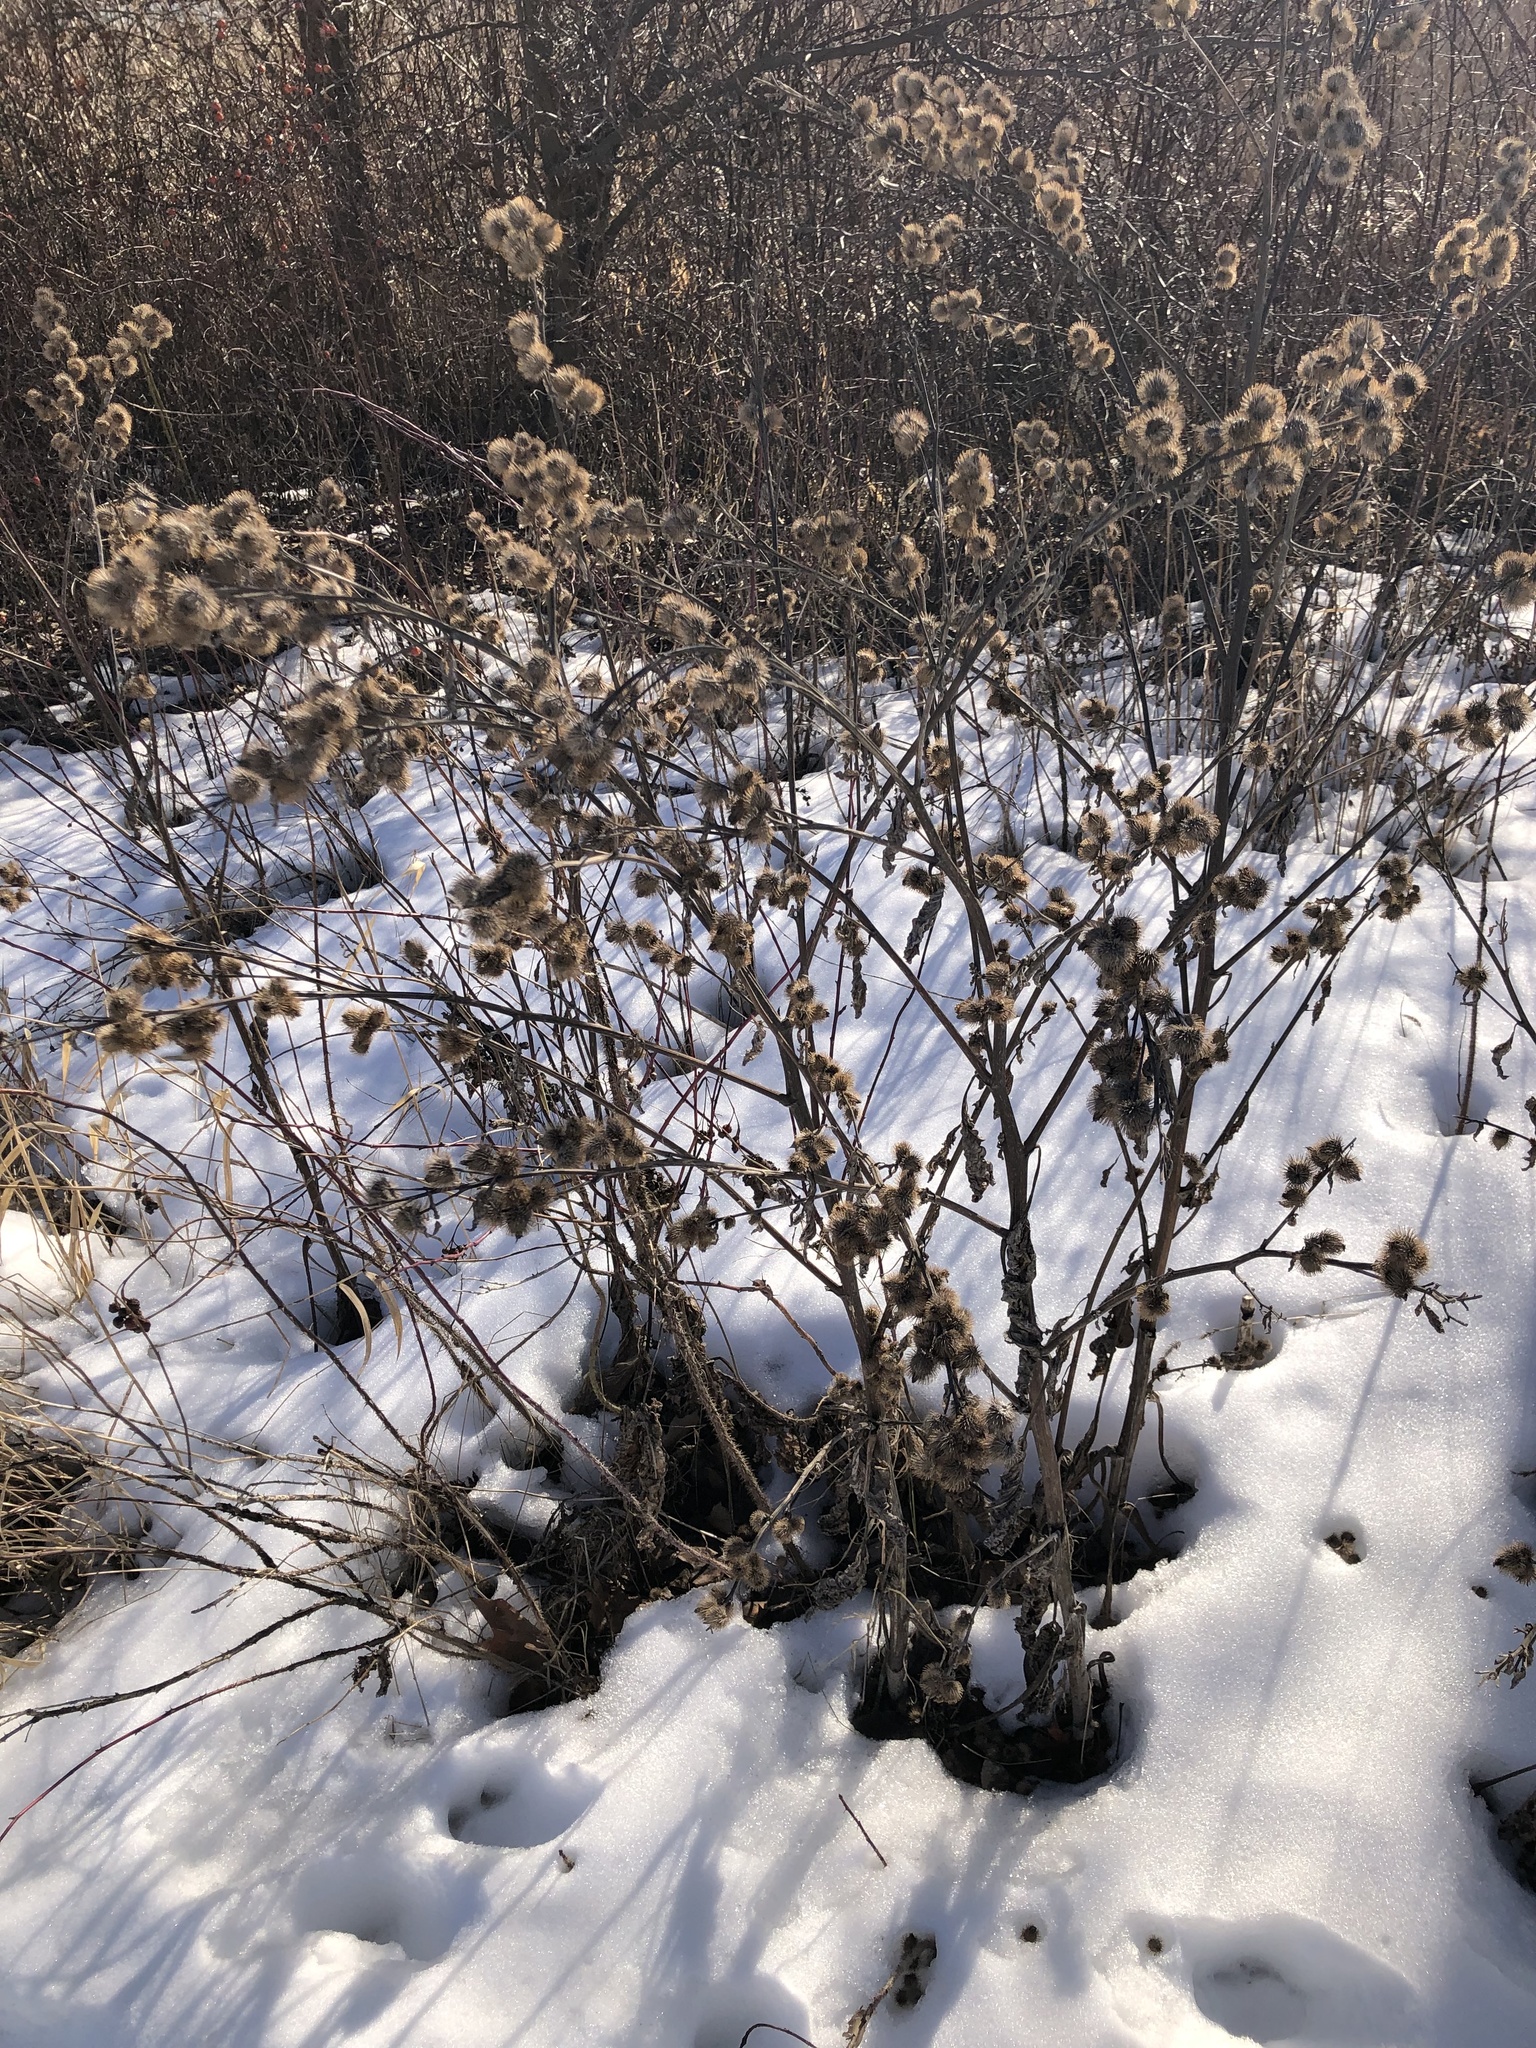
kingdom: Plantae
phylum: Tracheophyta
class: Magnoliopsida
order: Asterales
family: Asteraceae
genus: Arctium
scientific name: Arctium minus
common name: Lesser burdock
